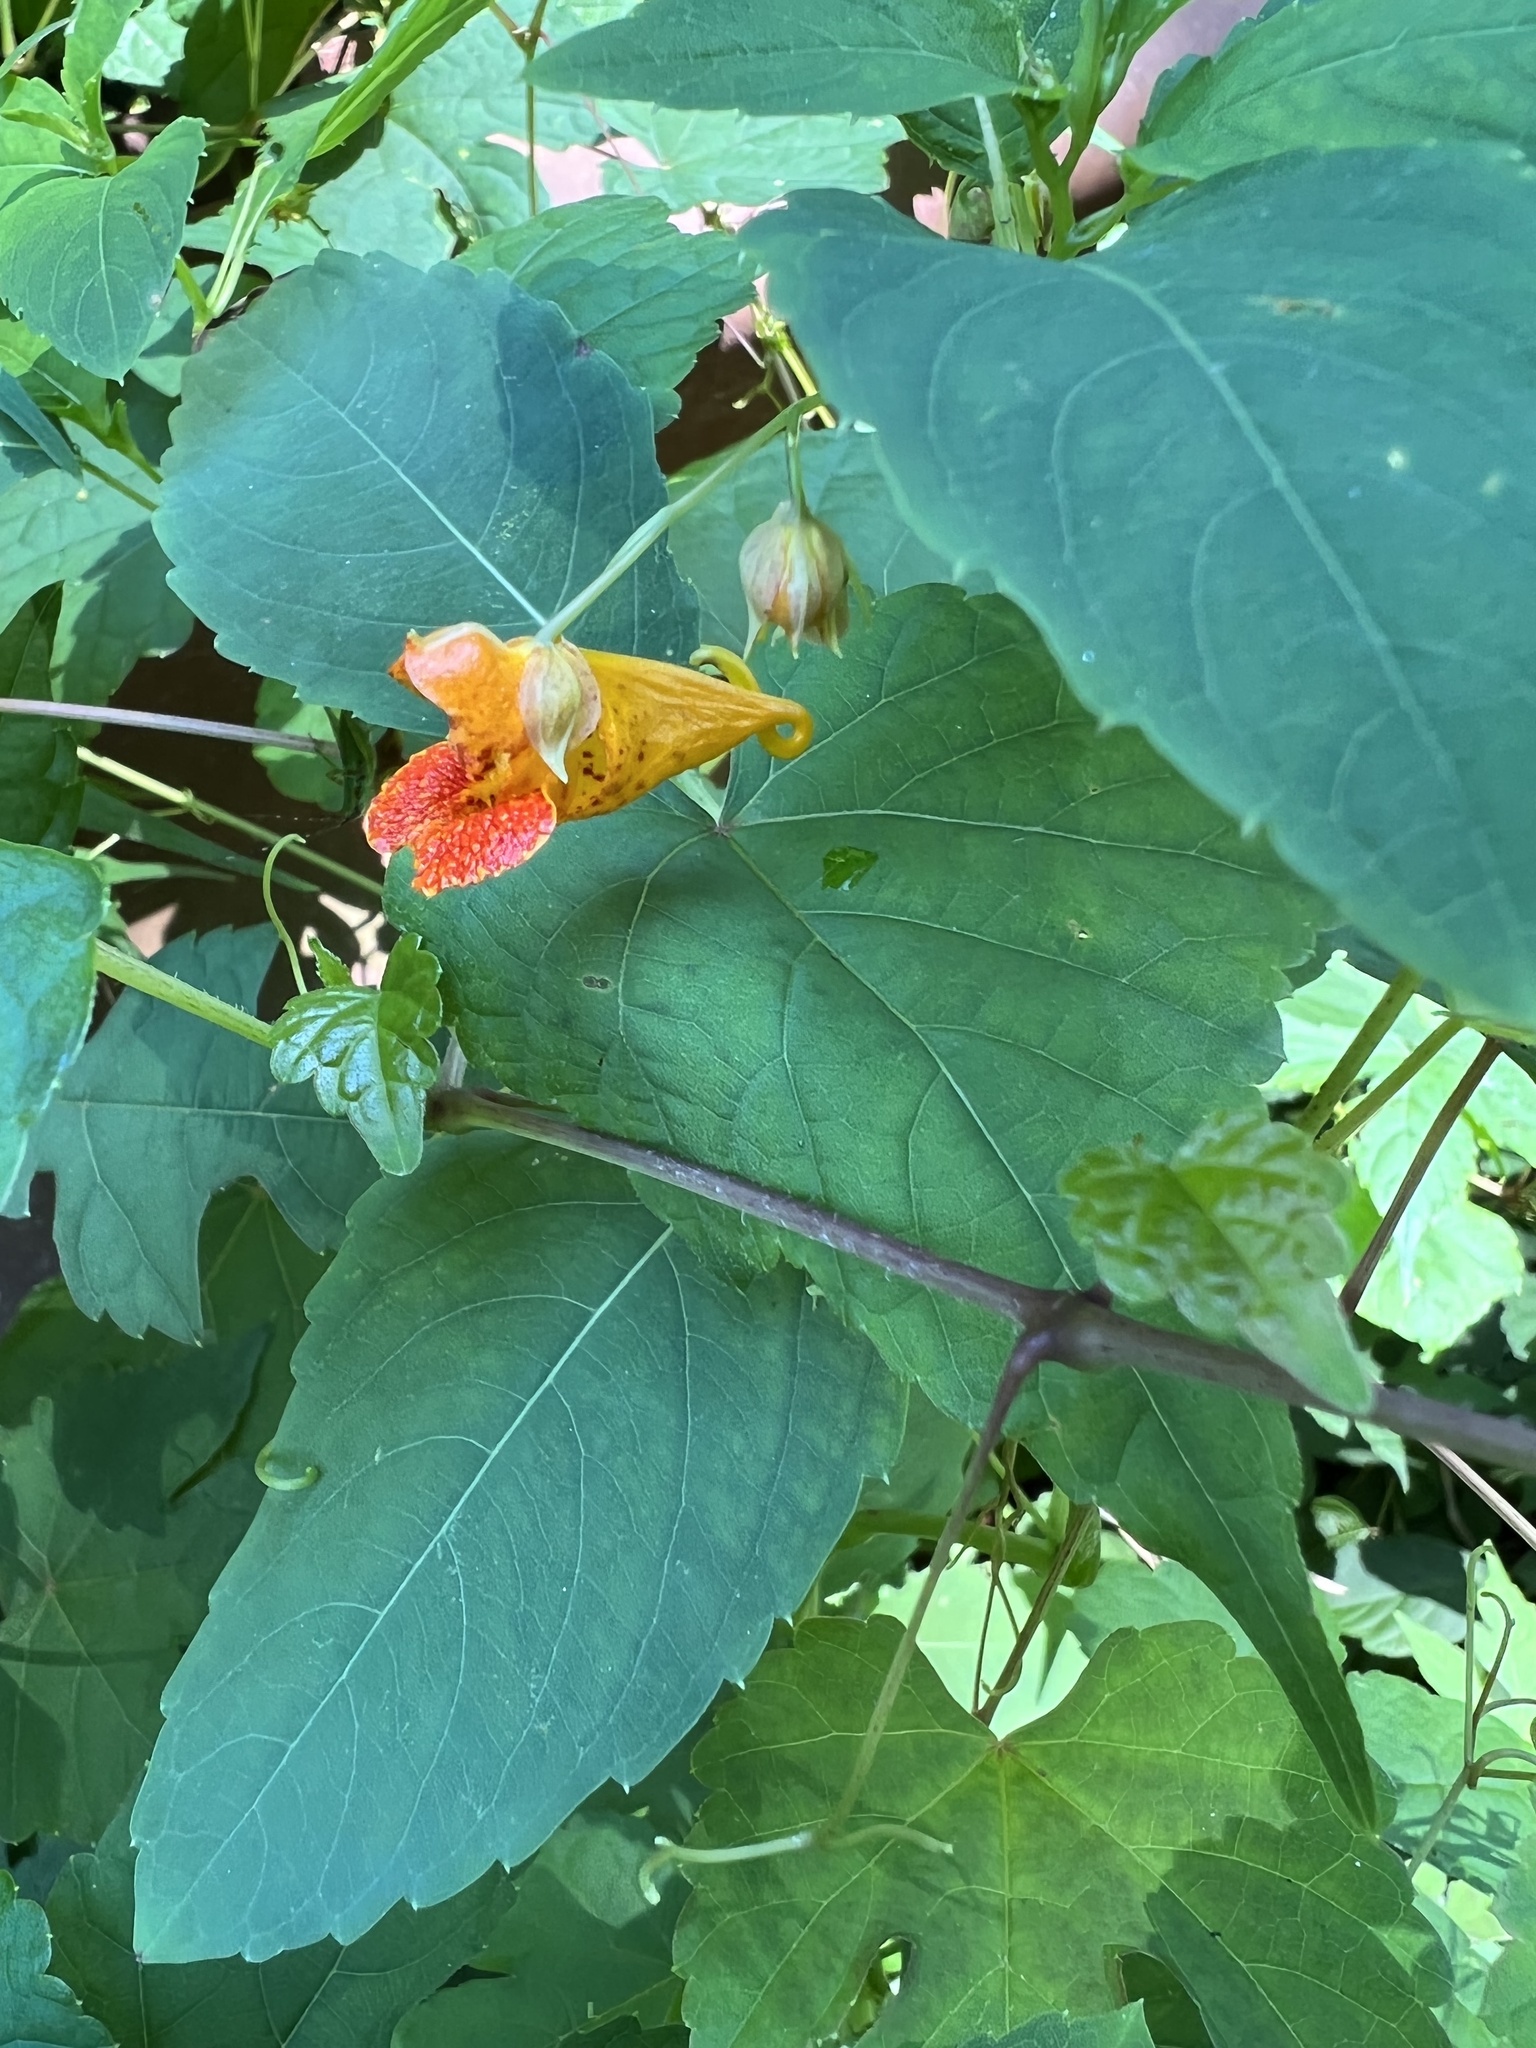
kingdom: Plantae
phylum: Tracheophyta
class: Magnoliopsida
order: Ericales
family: Balsaminaceae
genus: Impatiens
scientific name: Impatiens capensis
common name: Orange balsam
